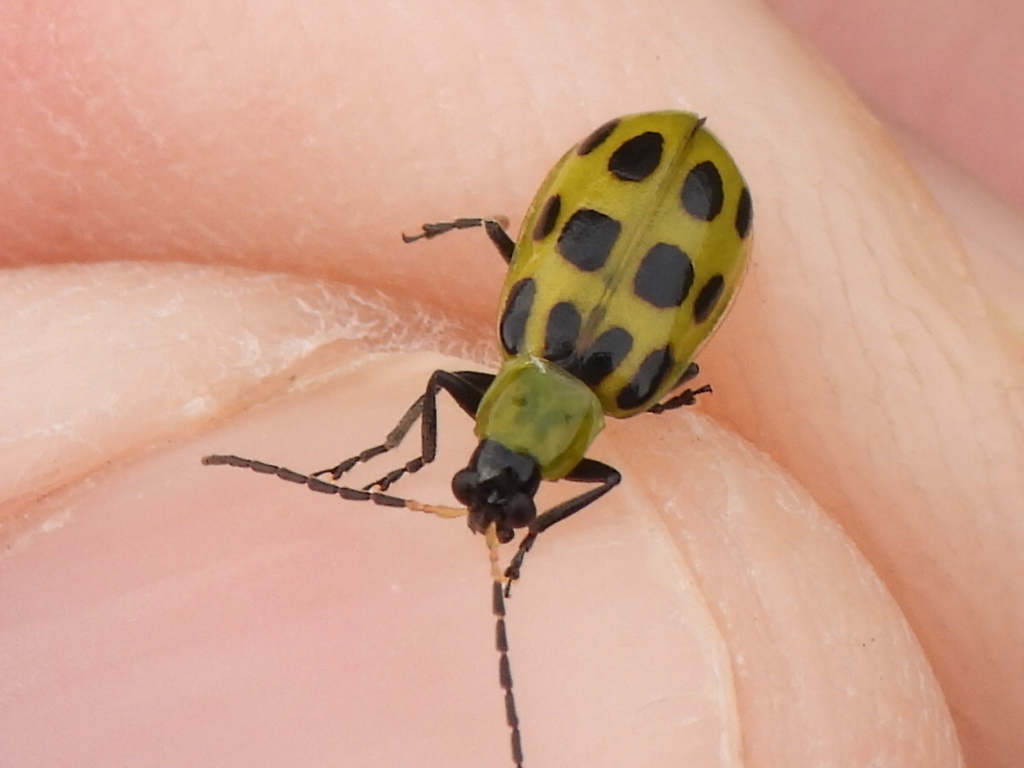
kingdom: Animalia
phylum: Arthropoda
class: Insecta
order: Coleoptera
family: Chrysomelidae
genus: Diabrotica
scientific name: Diabrotica undecimpunctata
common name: Spotted cucumber beetle
